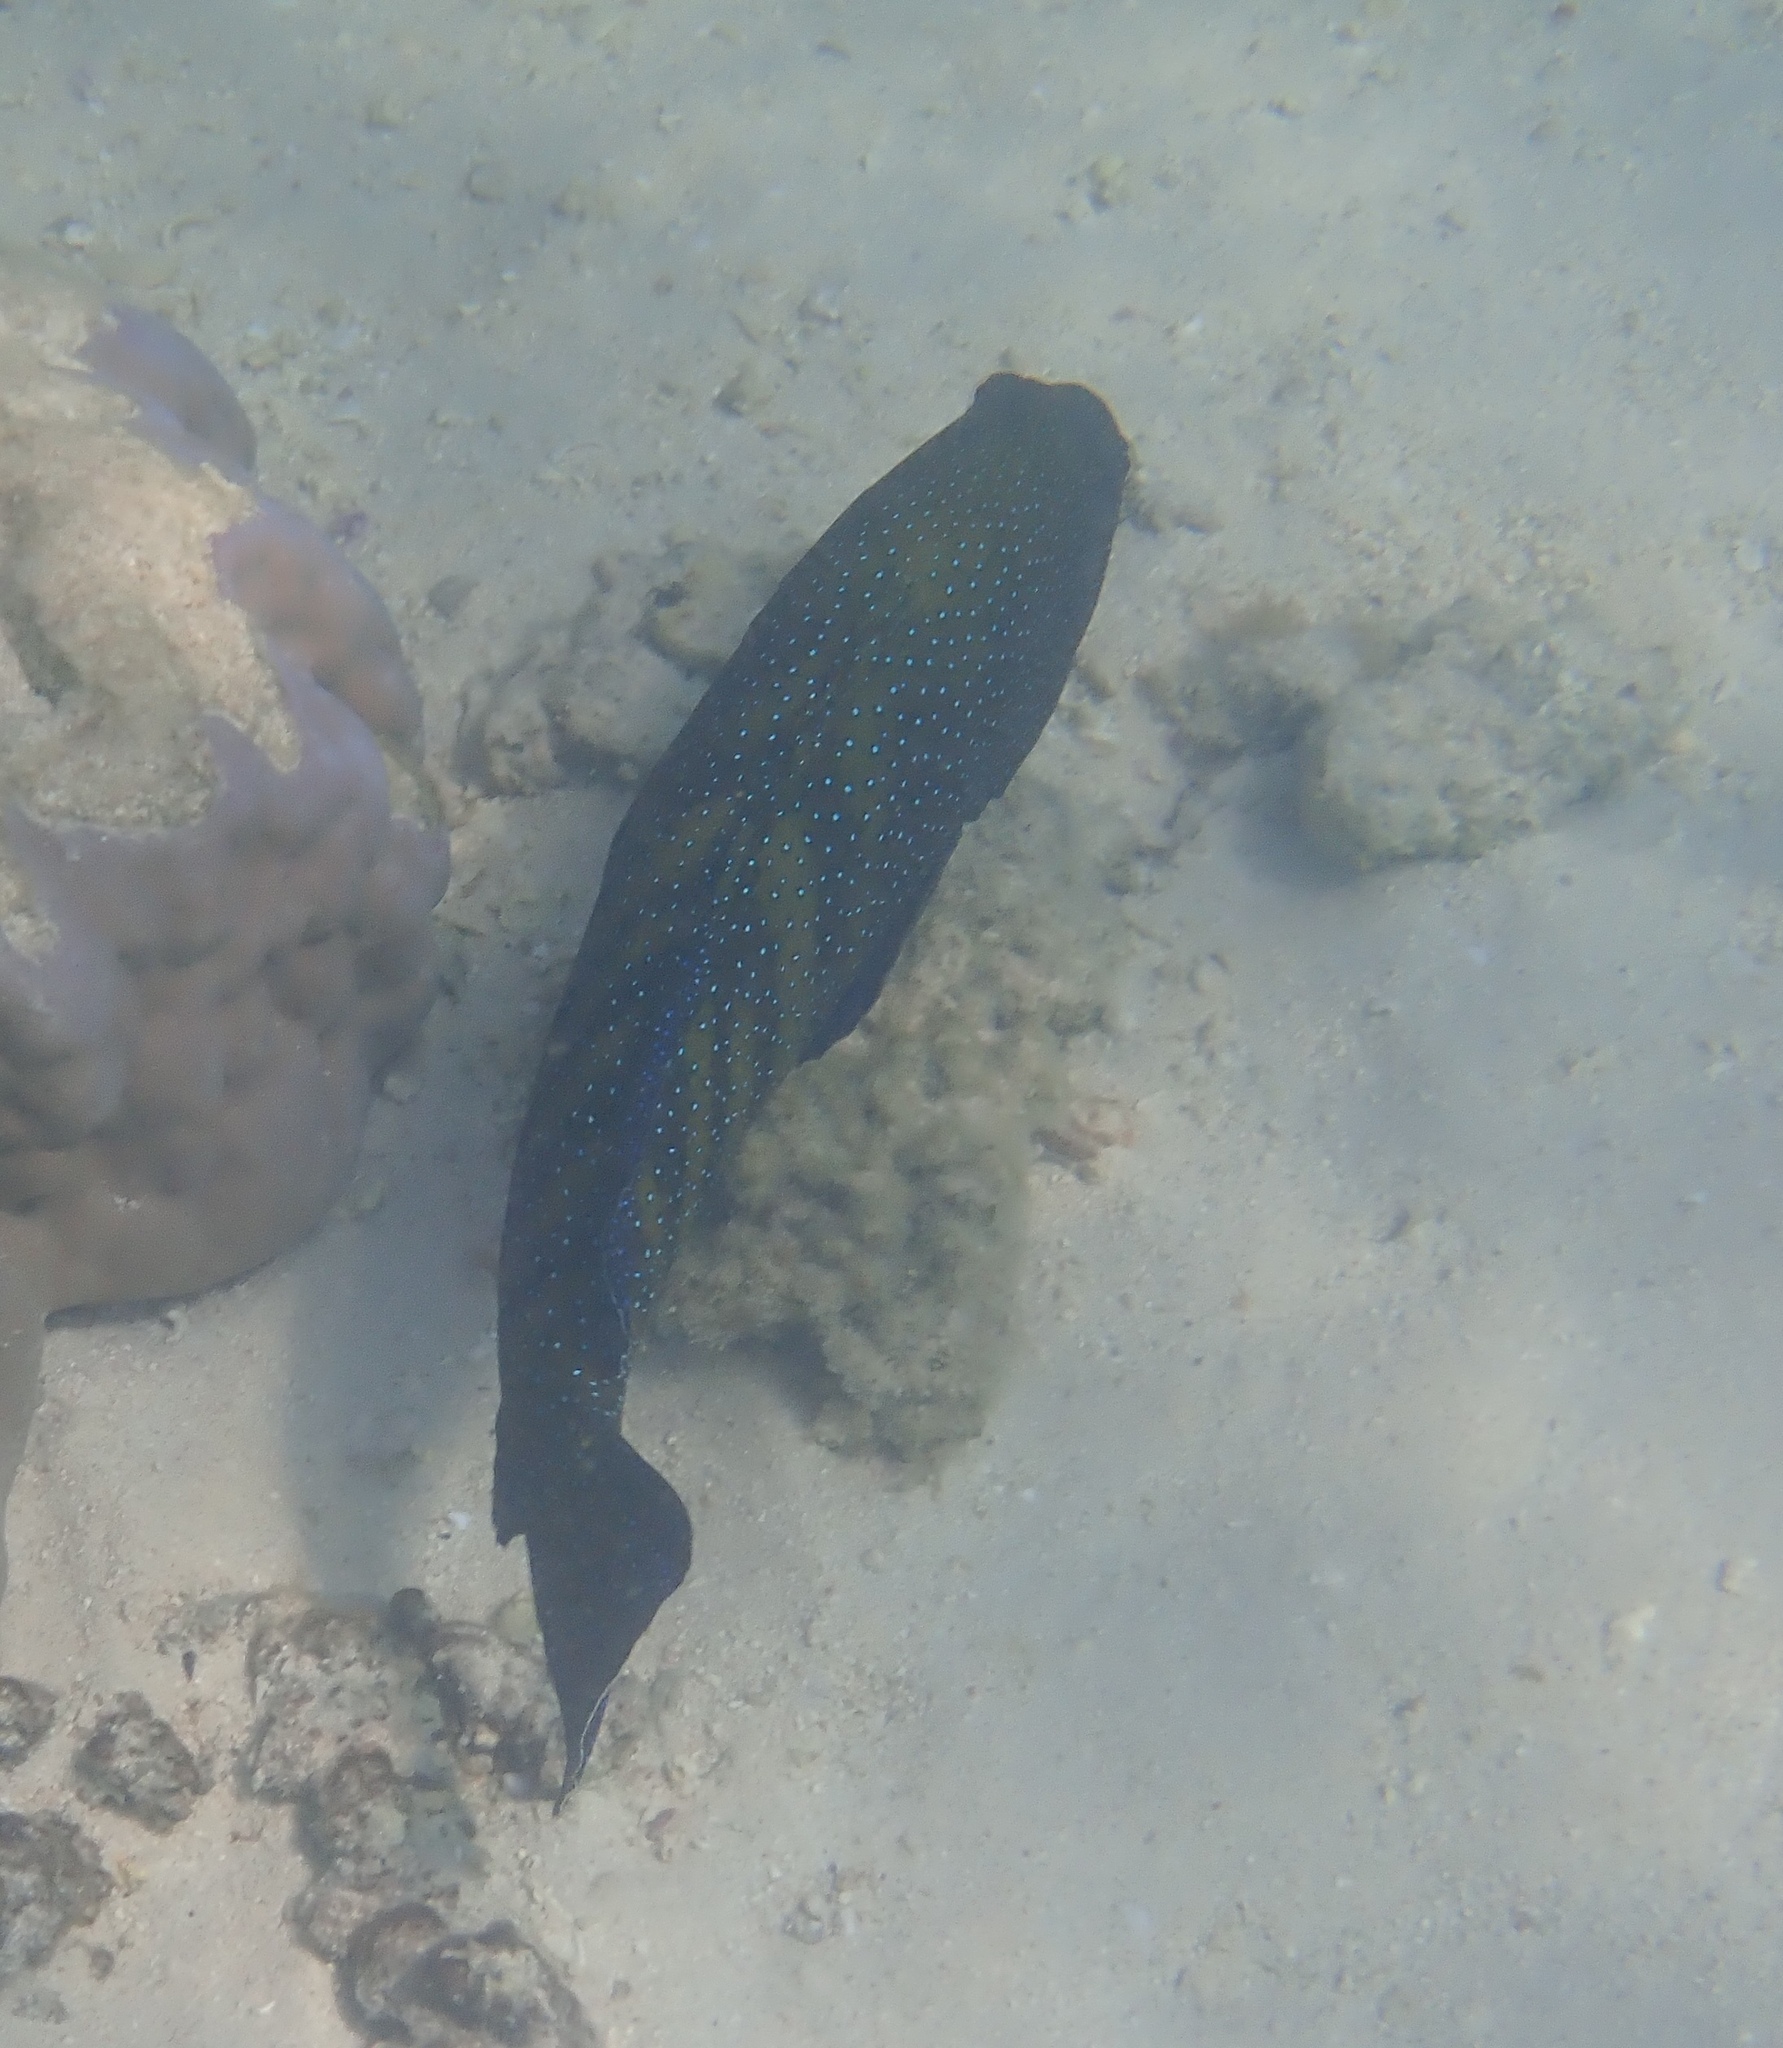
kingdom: Animalia
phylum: Chordata
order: Perciformes
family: Serranidae
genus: Cephalopholis
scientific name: Cephalopholis argus
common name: Peacock grouper
